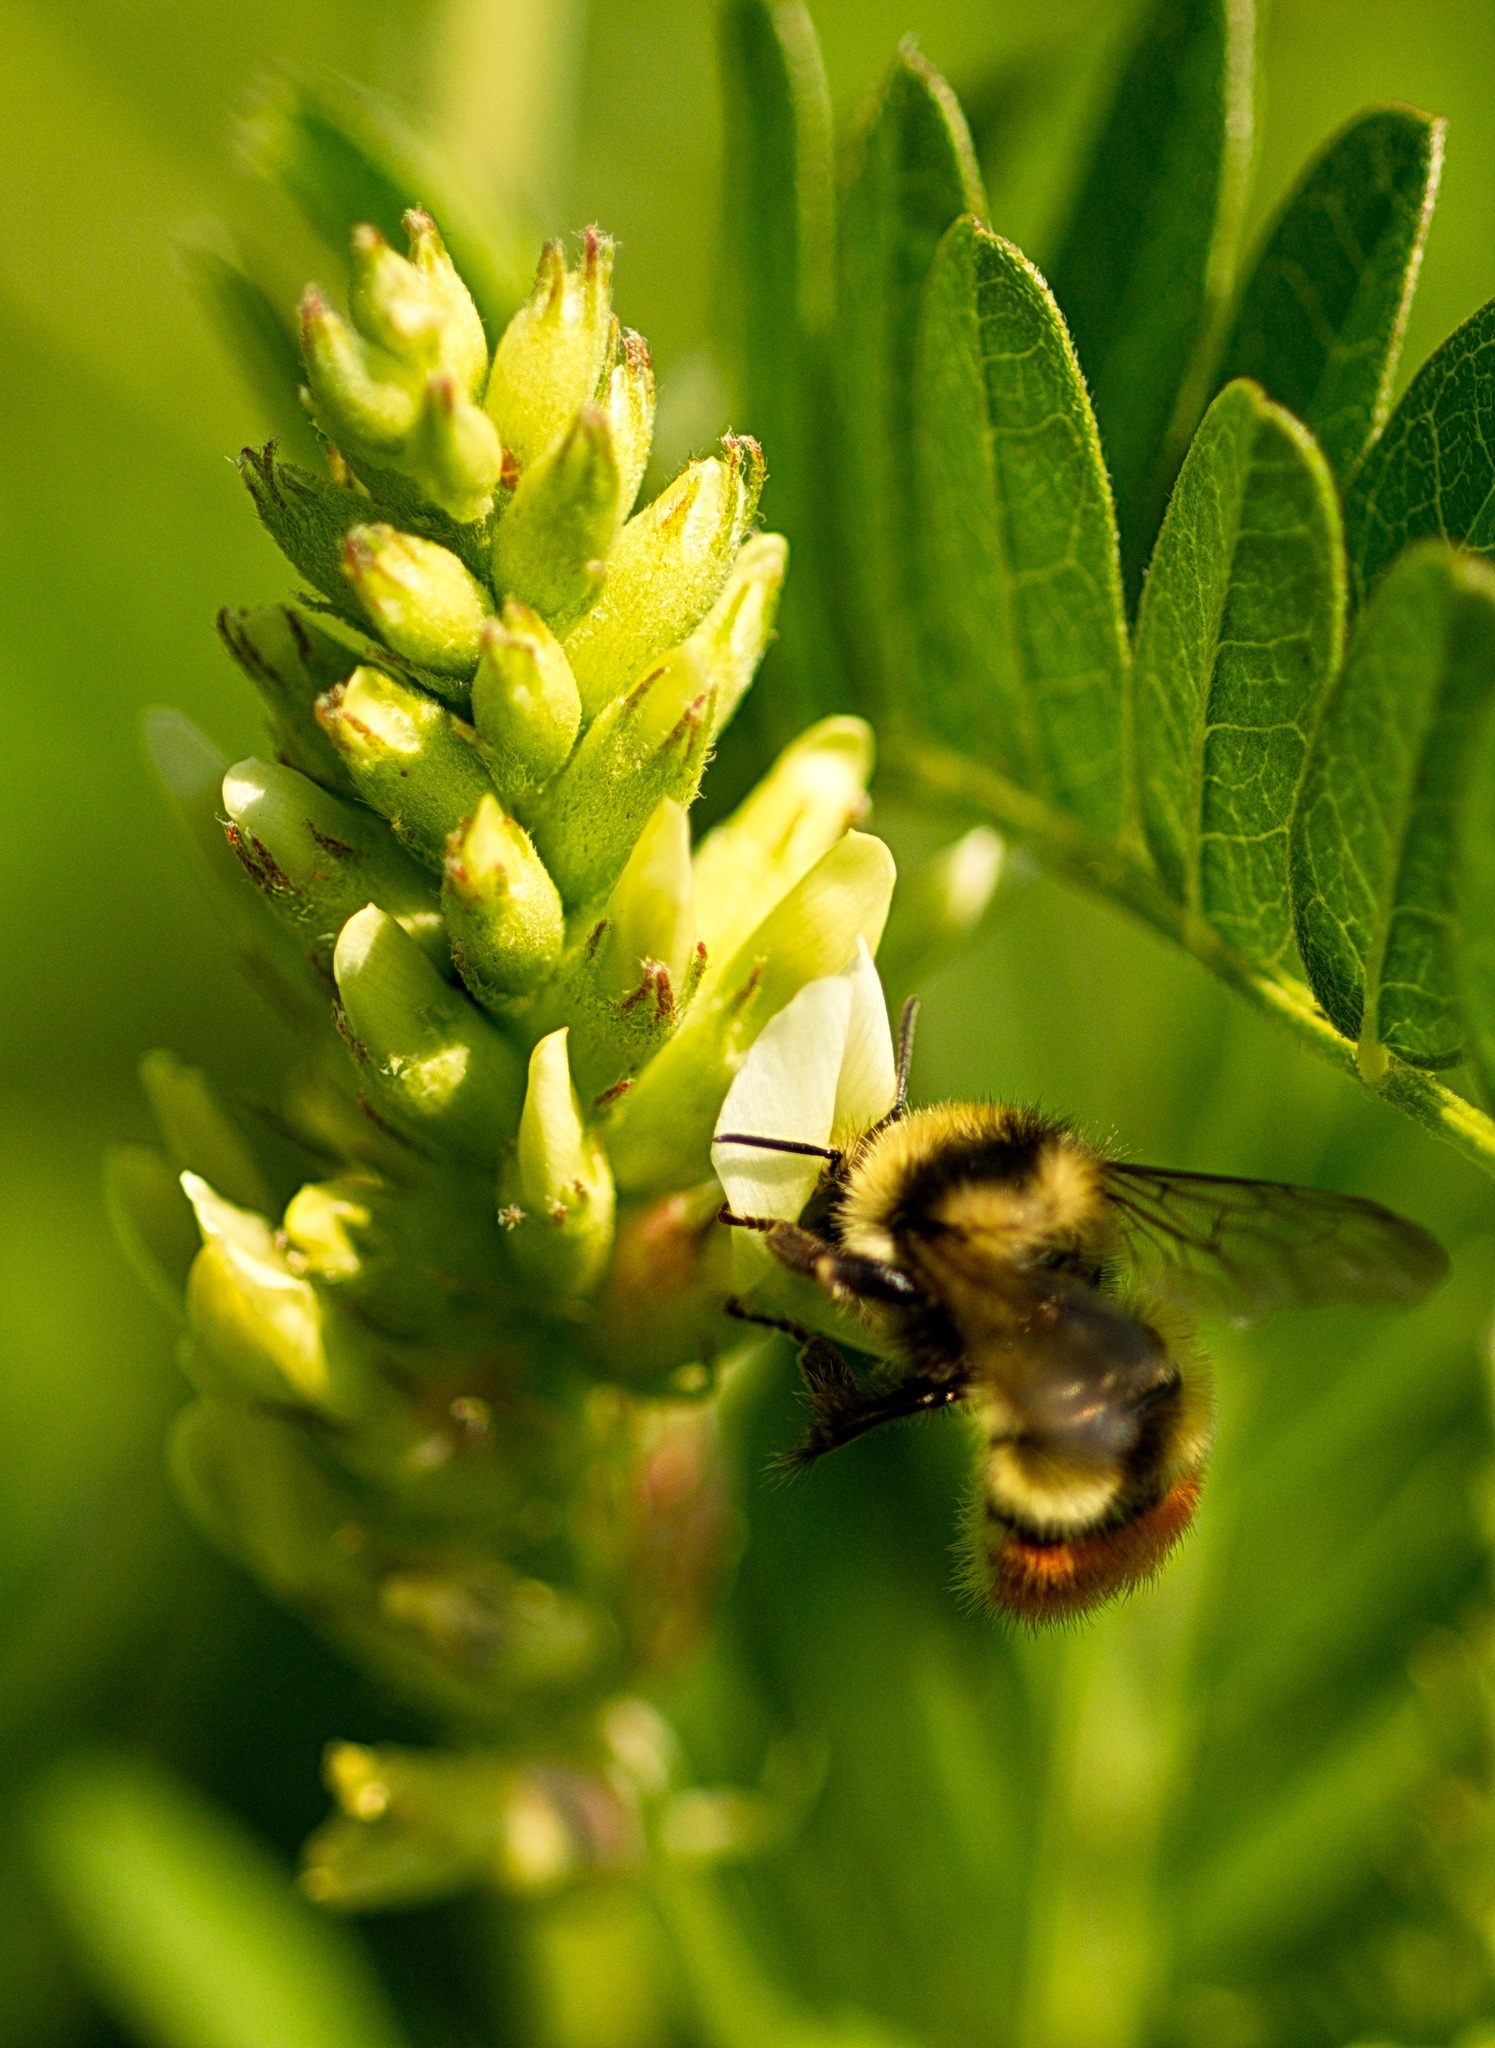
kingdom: Animalia
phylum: Arthropoda
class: Insecta
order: Hymenoptera
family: Apidae
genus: Bombus
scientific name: Bombus centralis
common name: Central bumble bee
